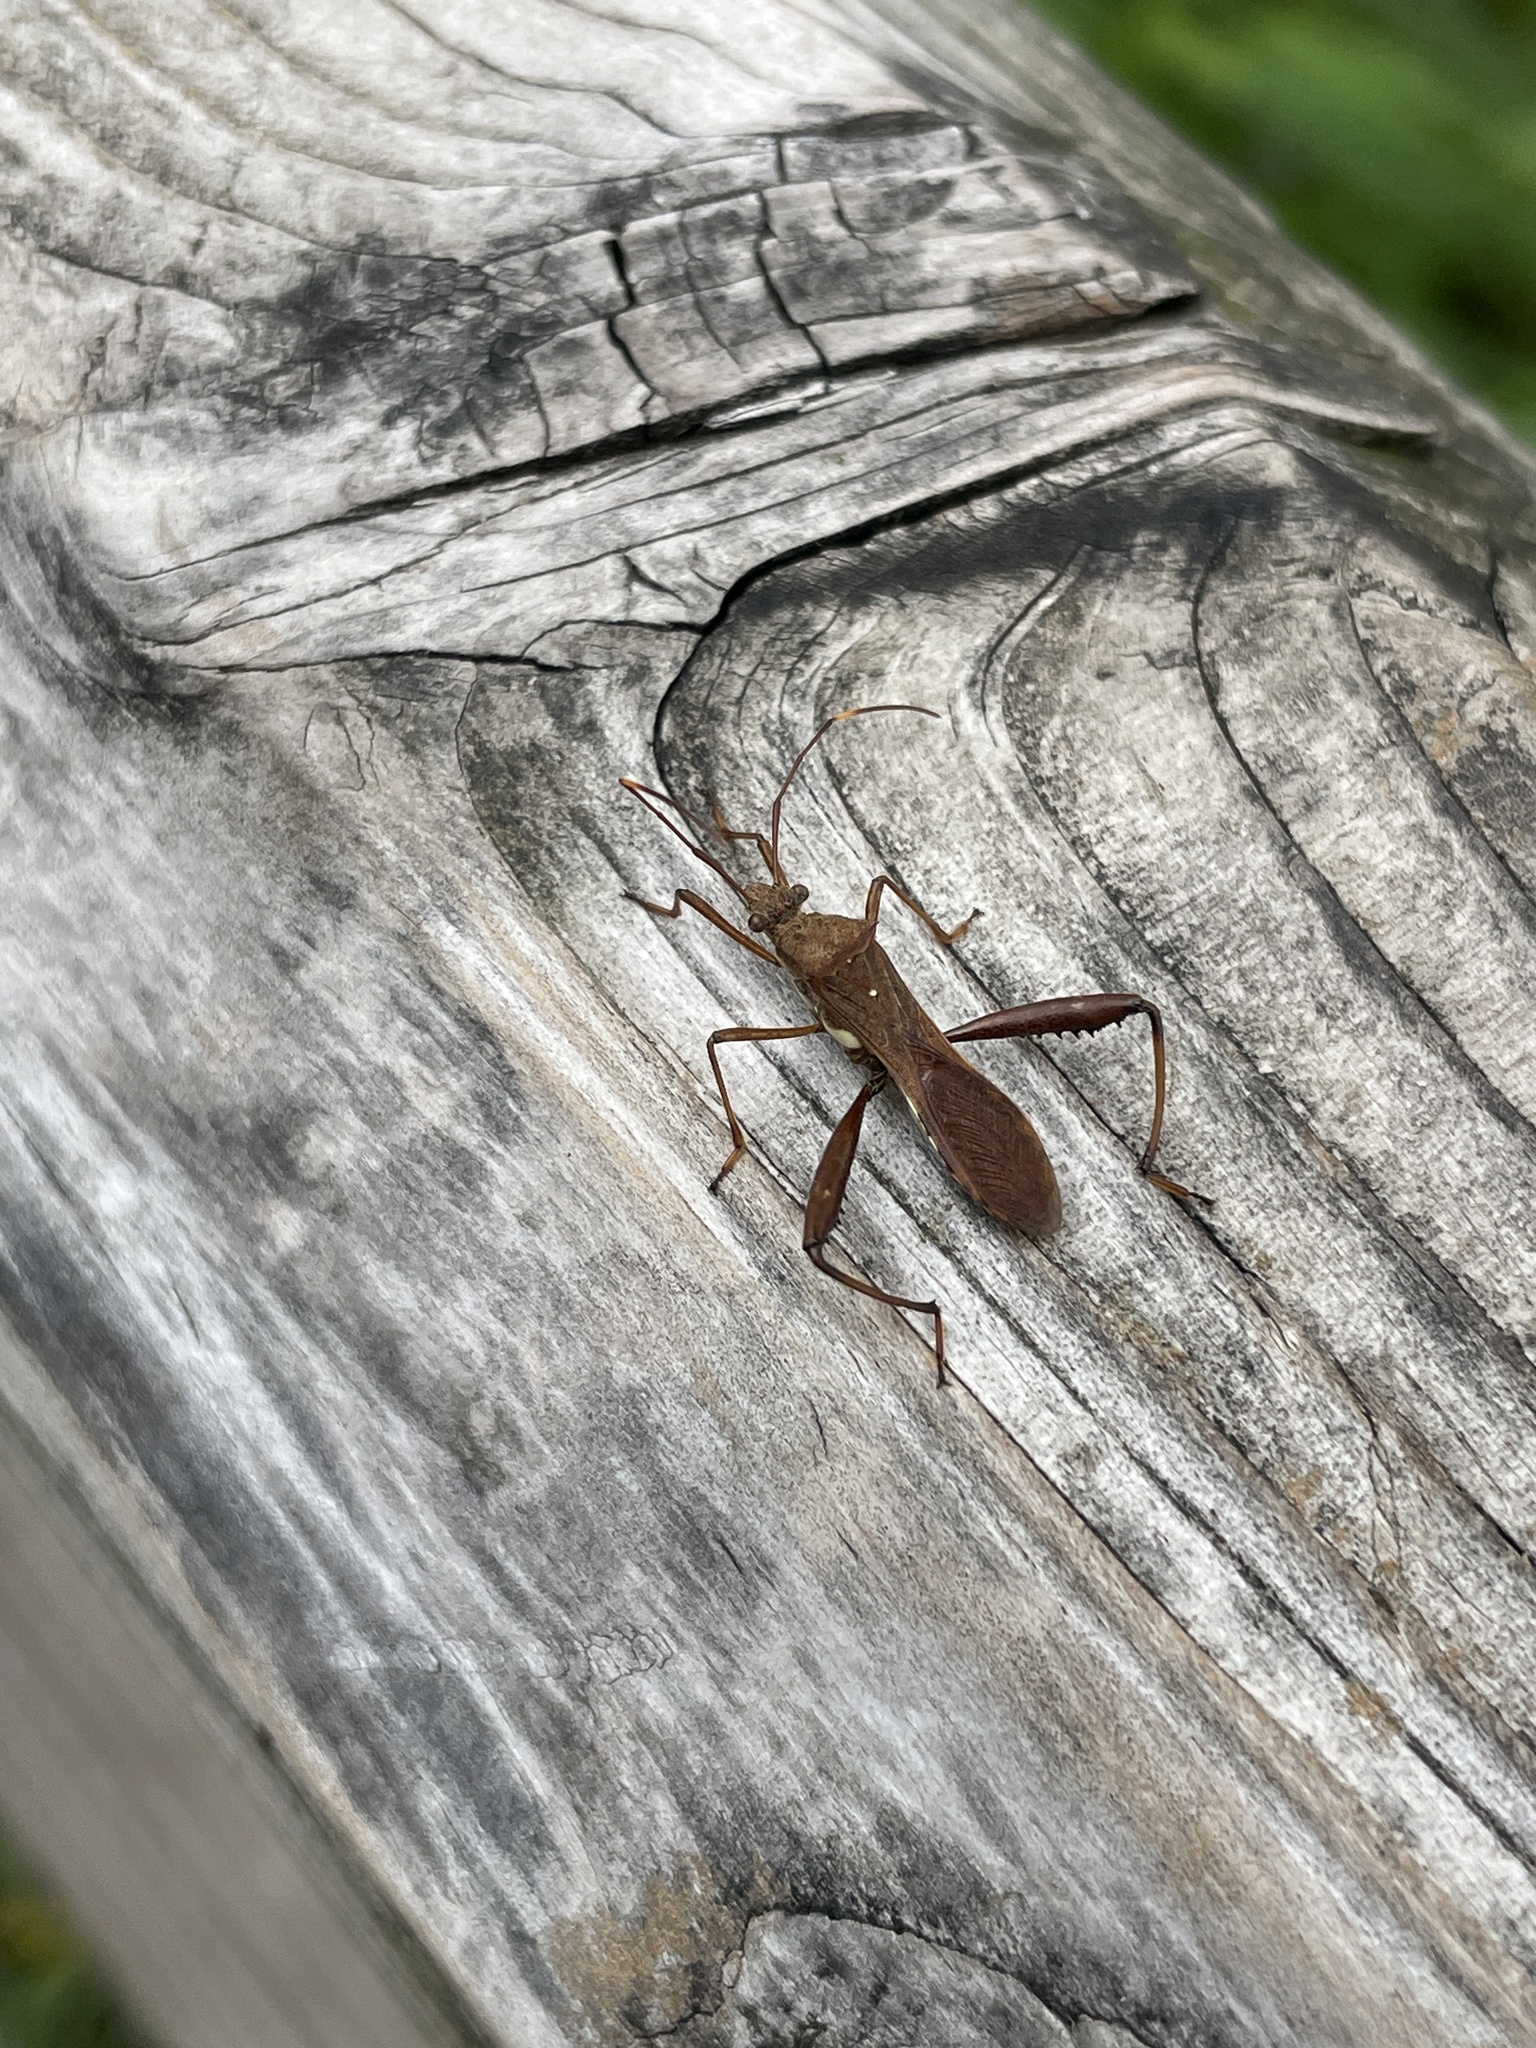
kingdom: Animalia
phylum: Arthropoda
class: Insecta
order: Hemiptera
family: Alydidae
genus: Riptortus
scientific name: Riptortus pedestris
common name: Bean bug
